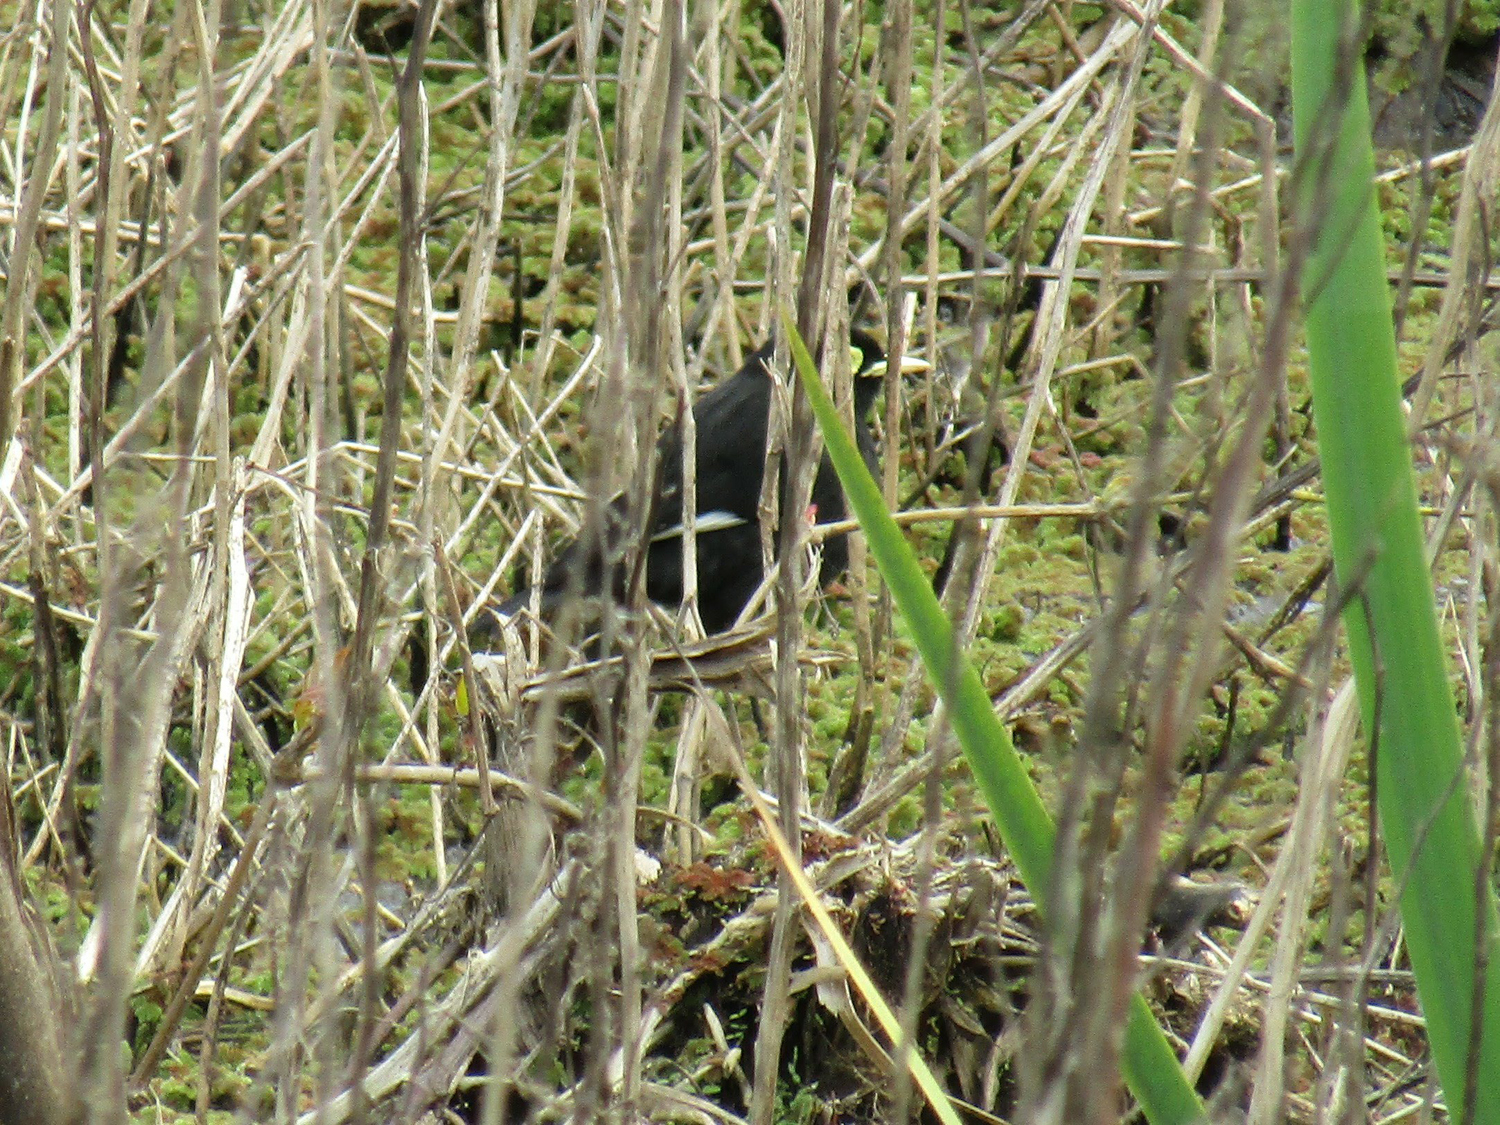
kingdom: Animalia
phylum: Chordata
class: Aves
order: Passeriformes
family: Tyrannidae
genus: Hymenops
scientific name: Hymenops perspicillatus
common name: Spectacled tyrant
